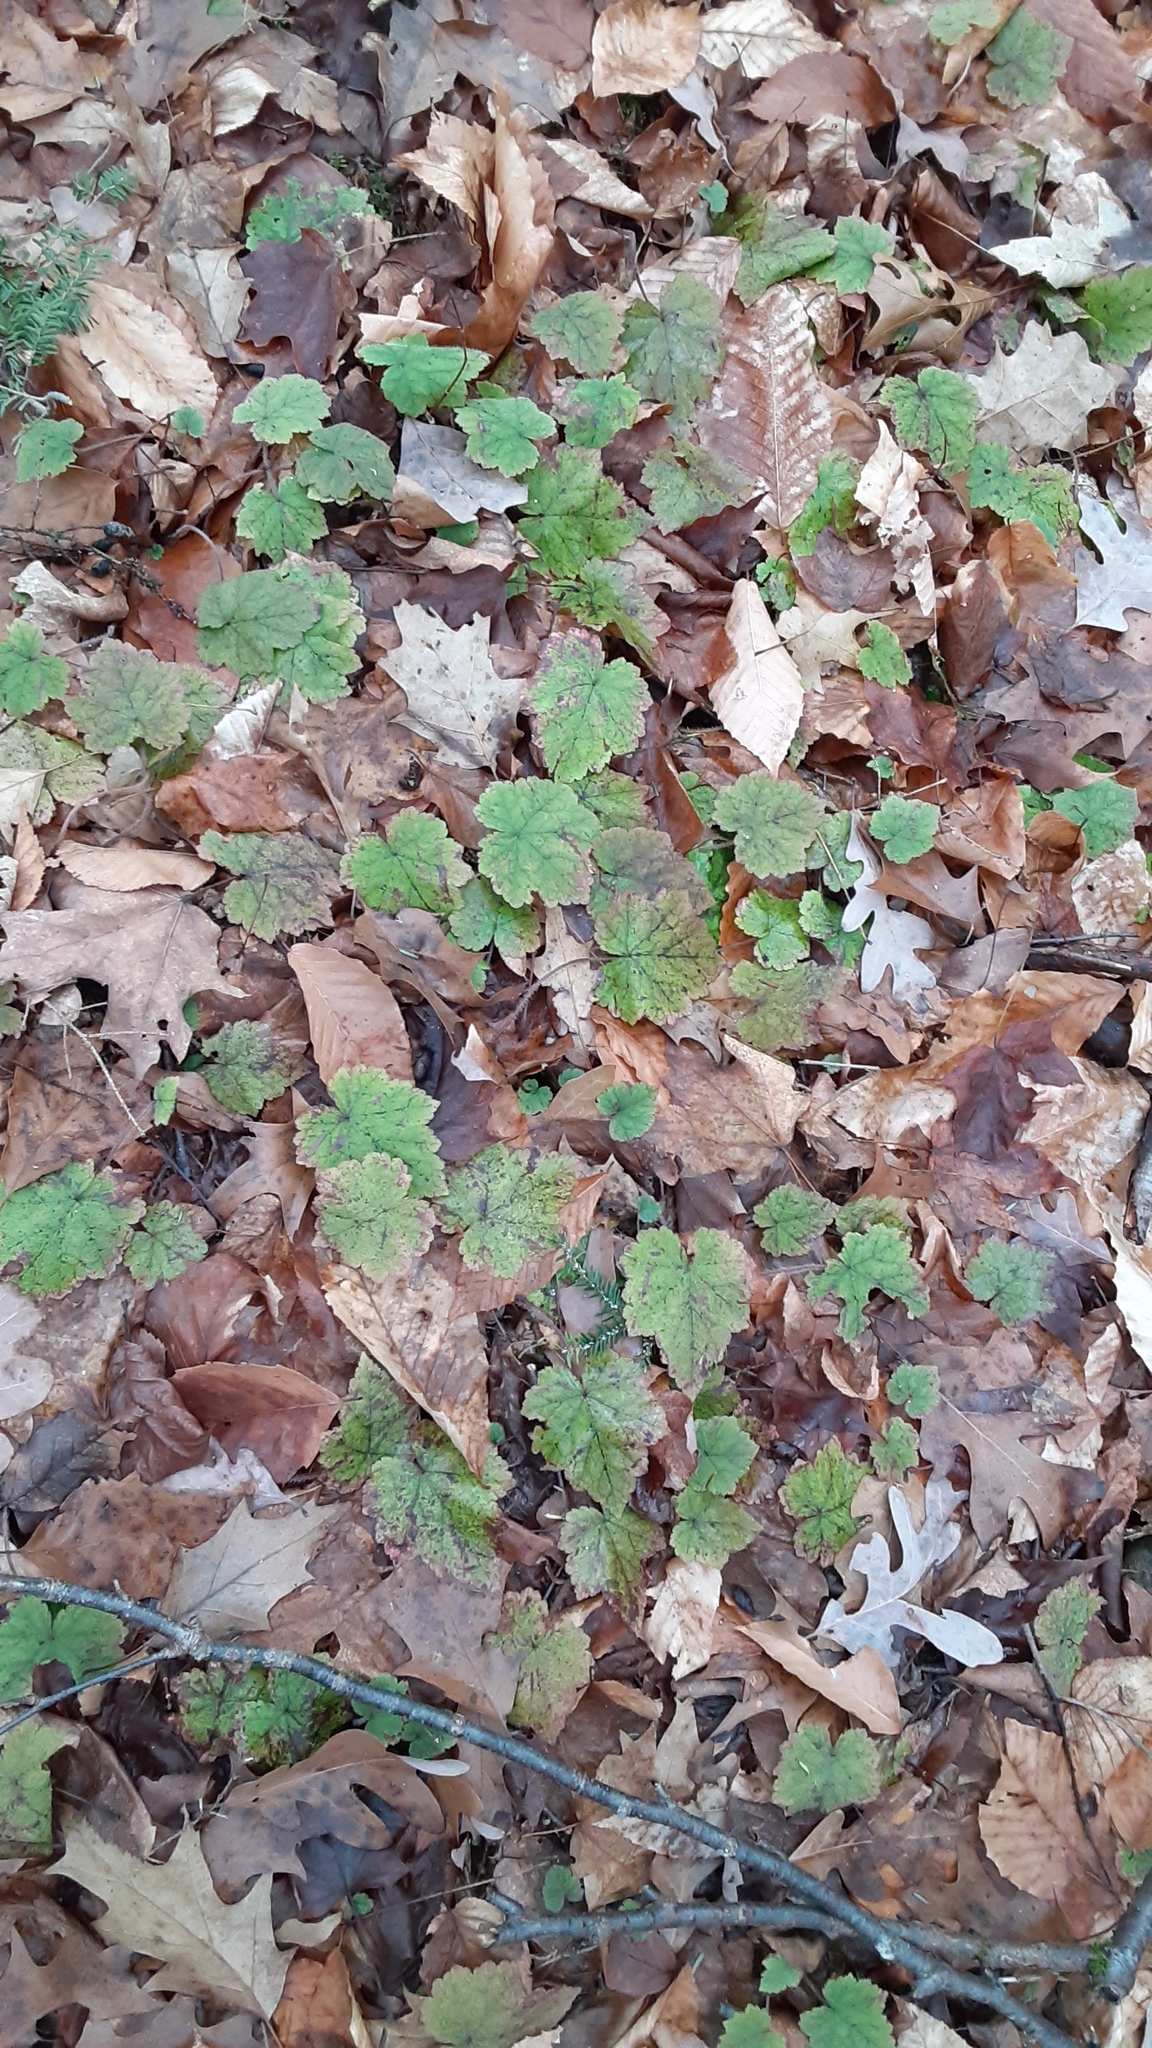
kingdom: Plantae
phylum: Tracheophyta
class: Magnoliopsida
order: Saxifragales
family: Saxifragaceae
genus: Tiarella
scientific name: Tiarella stolonifera
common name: Stoloniferous foamflower
